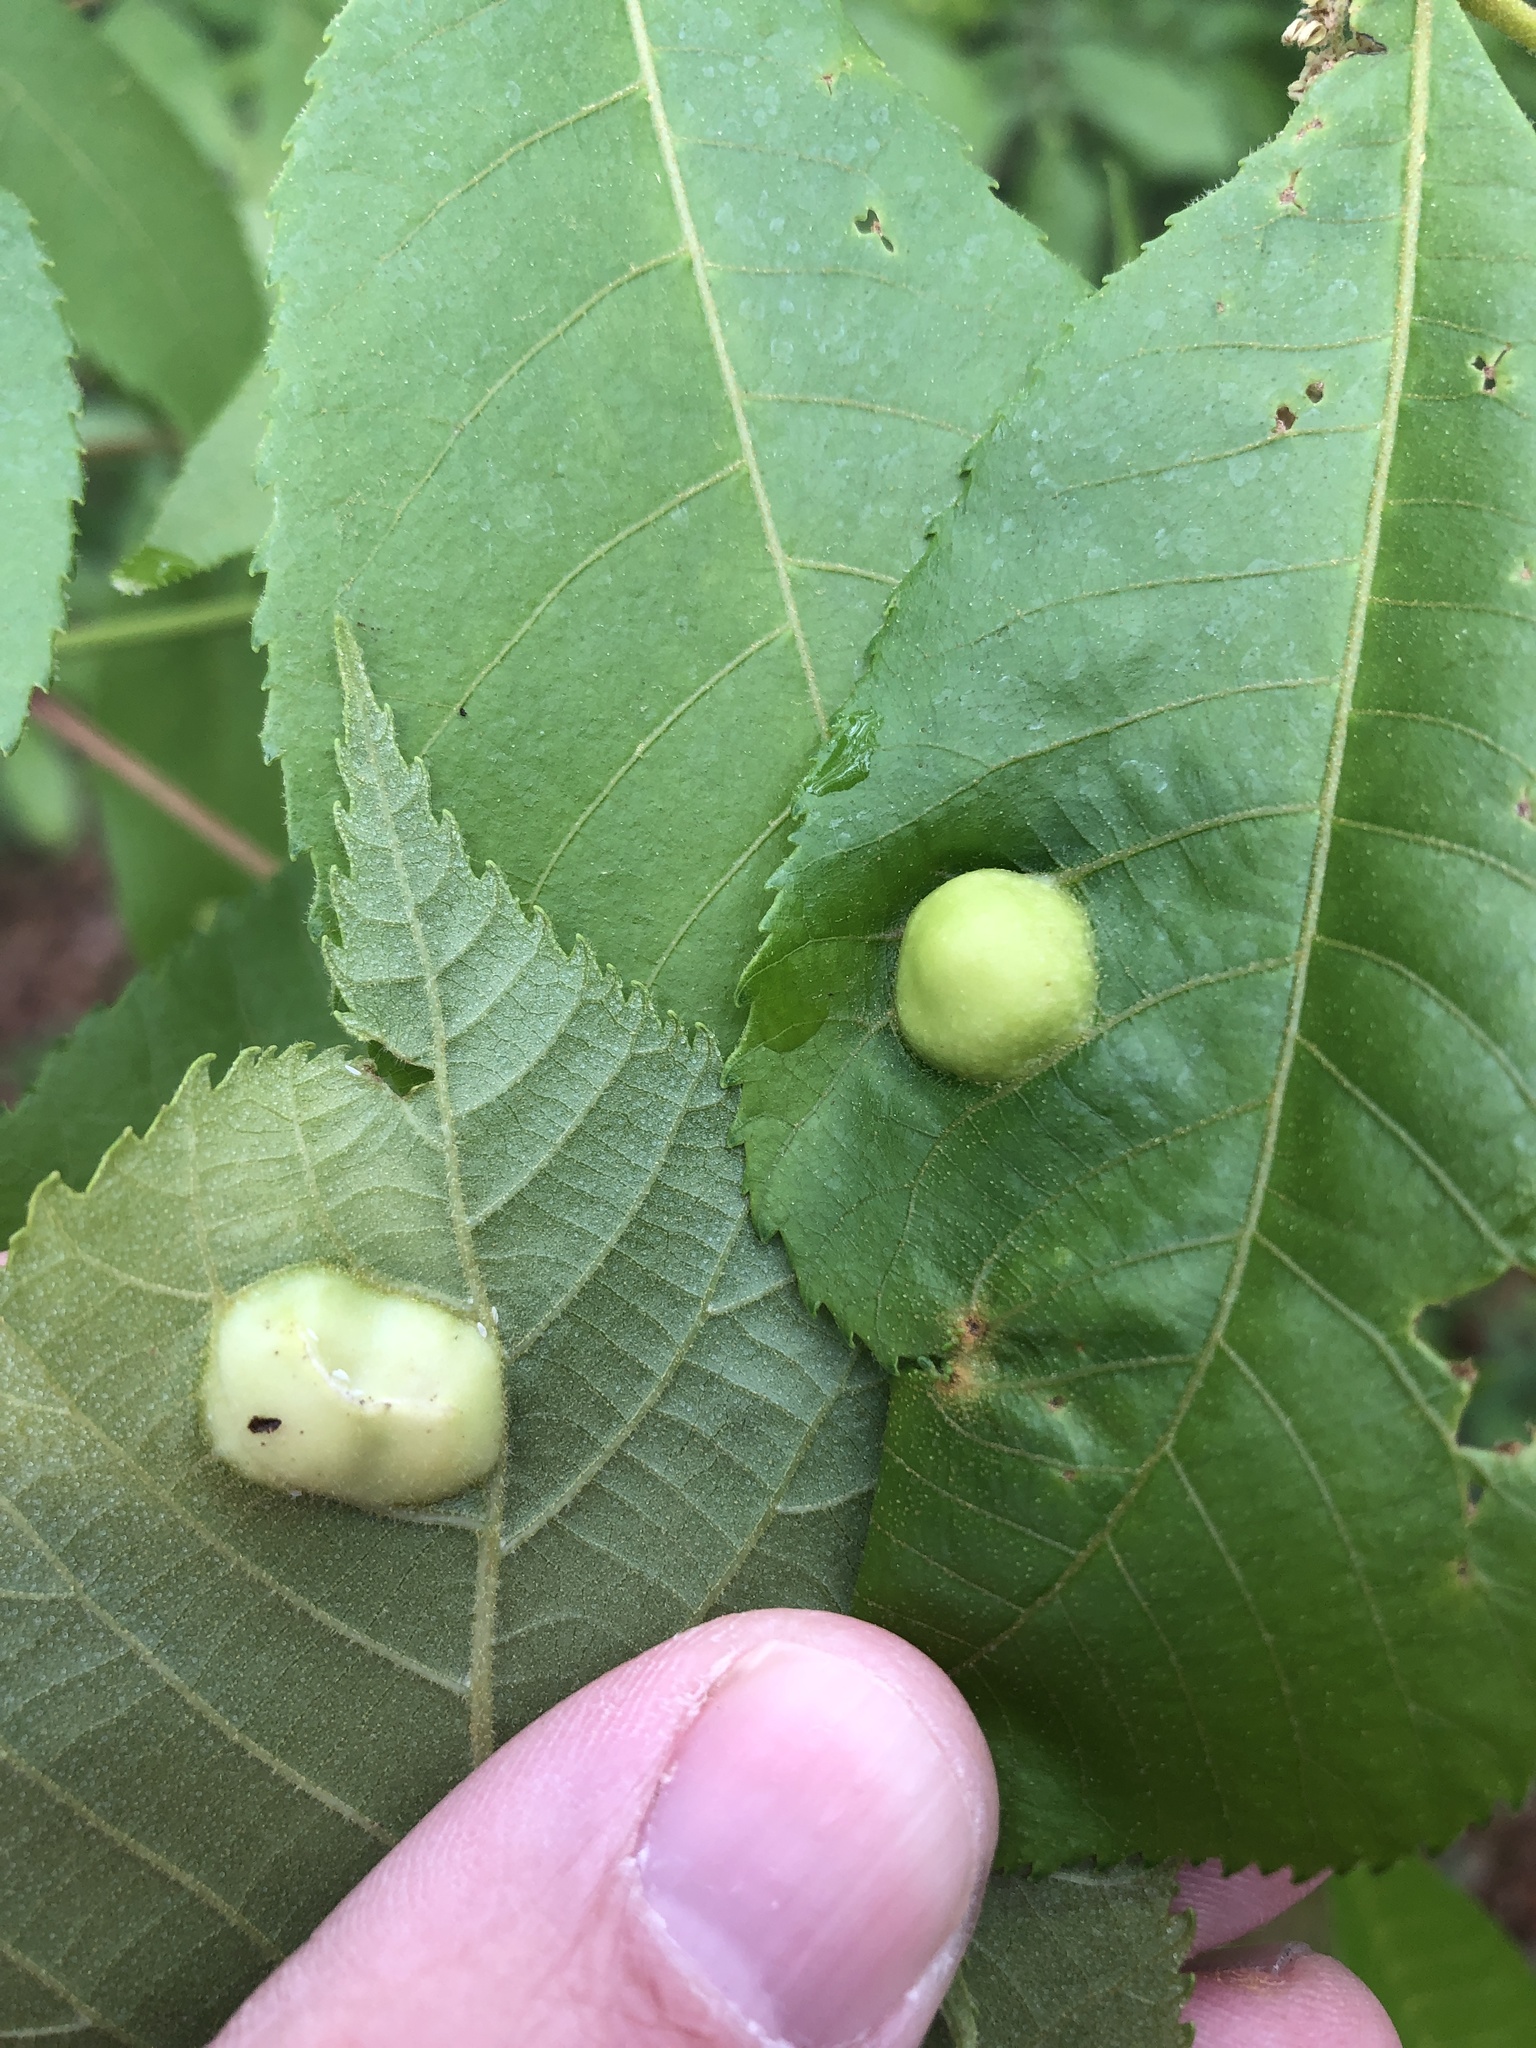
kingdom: Animalia
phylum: Arthropoda
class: Insecta
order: Hemiptera
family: Phylloxeridae
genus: Phylloxera
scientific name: Phylloxera caryae-scissa
